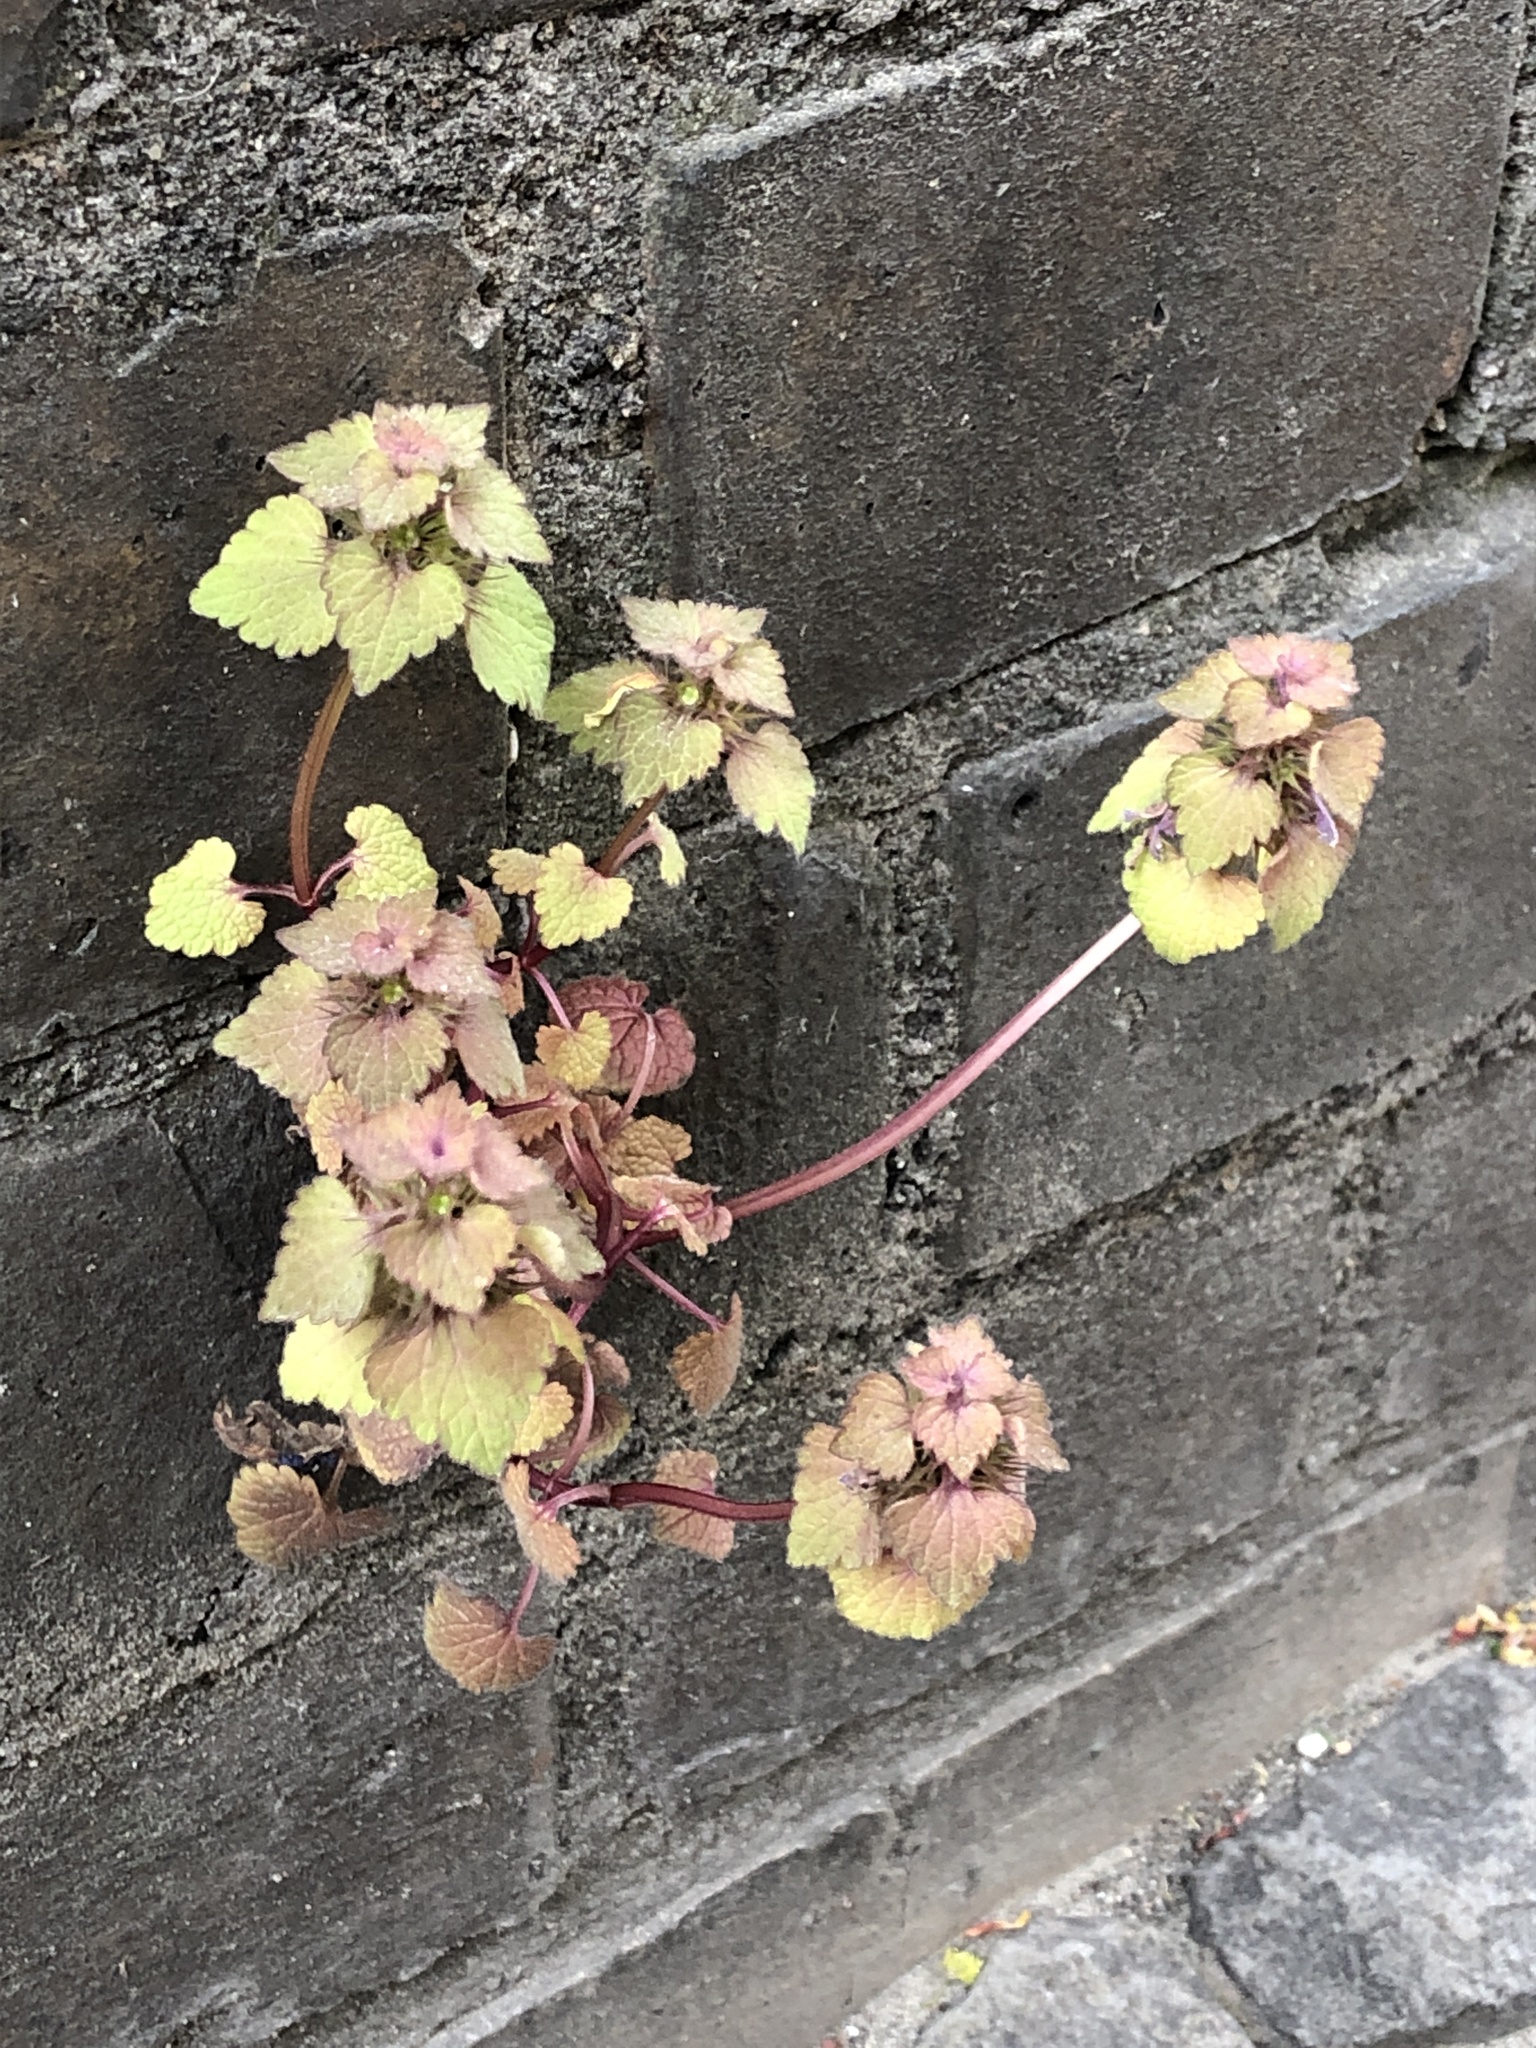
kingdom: Plantae
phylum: Tracheophyta
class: Magnoliopsida
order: Lamiales
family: Lamiaceae
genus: Lamium
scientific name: Lamium purpureum
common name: Red dead-nettle
